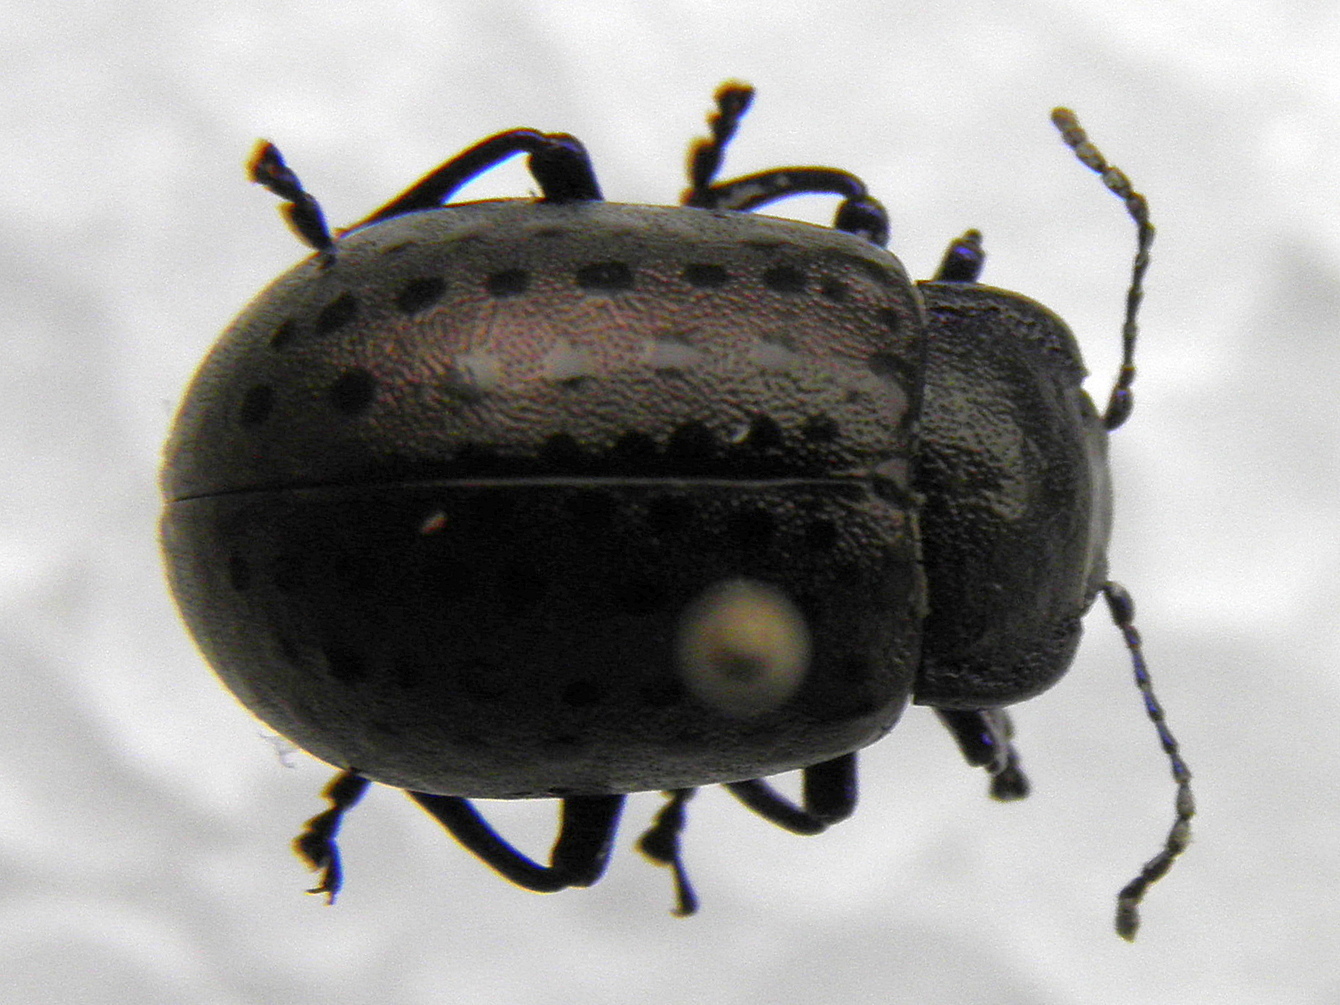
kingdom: Animalia
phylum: Arthropoda
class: Insecta
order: Coleoptera
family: Chrysomelidae
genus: Chrysolina
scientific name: Chrysolina
